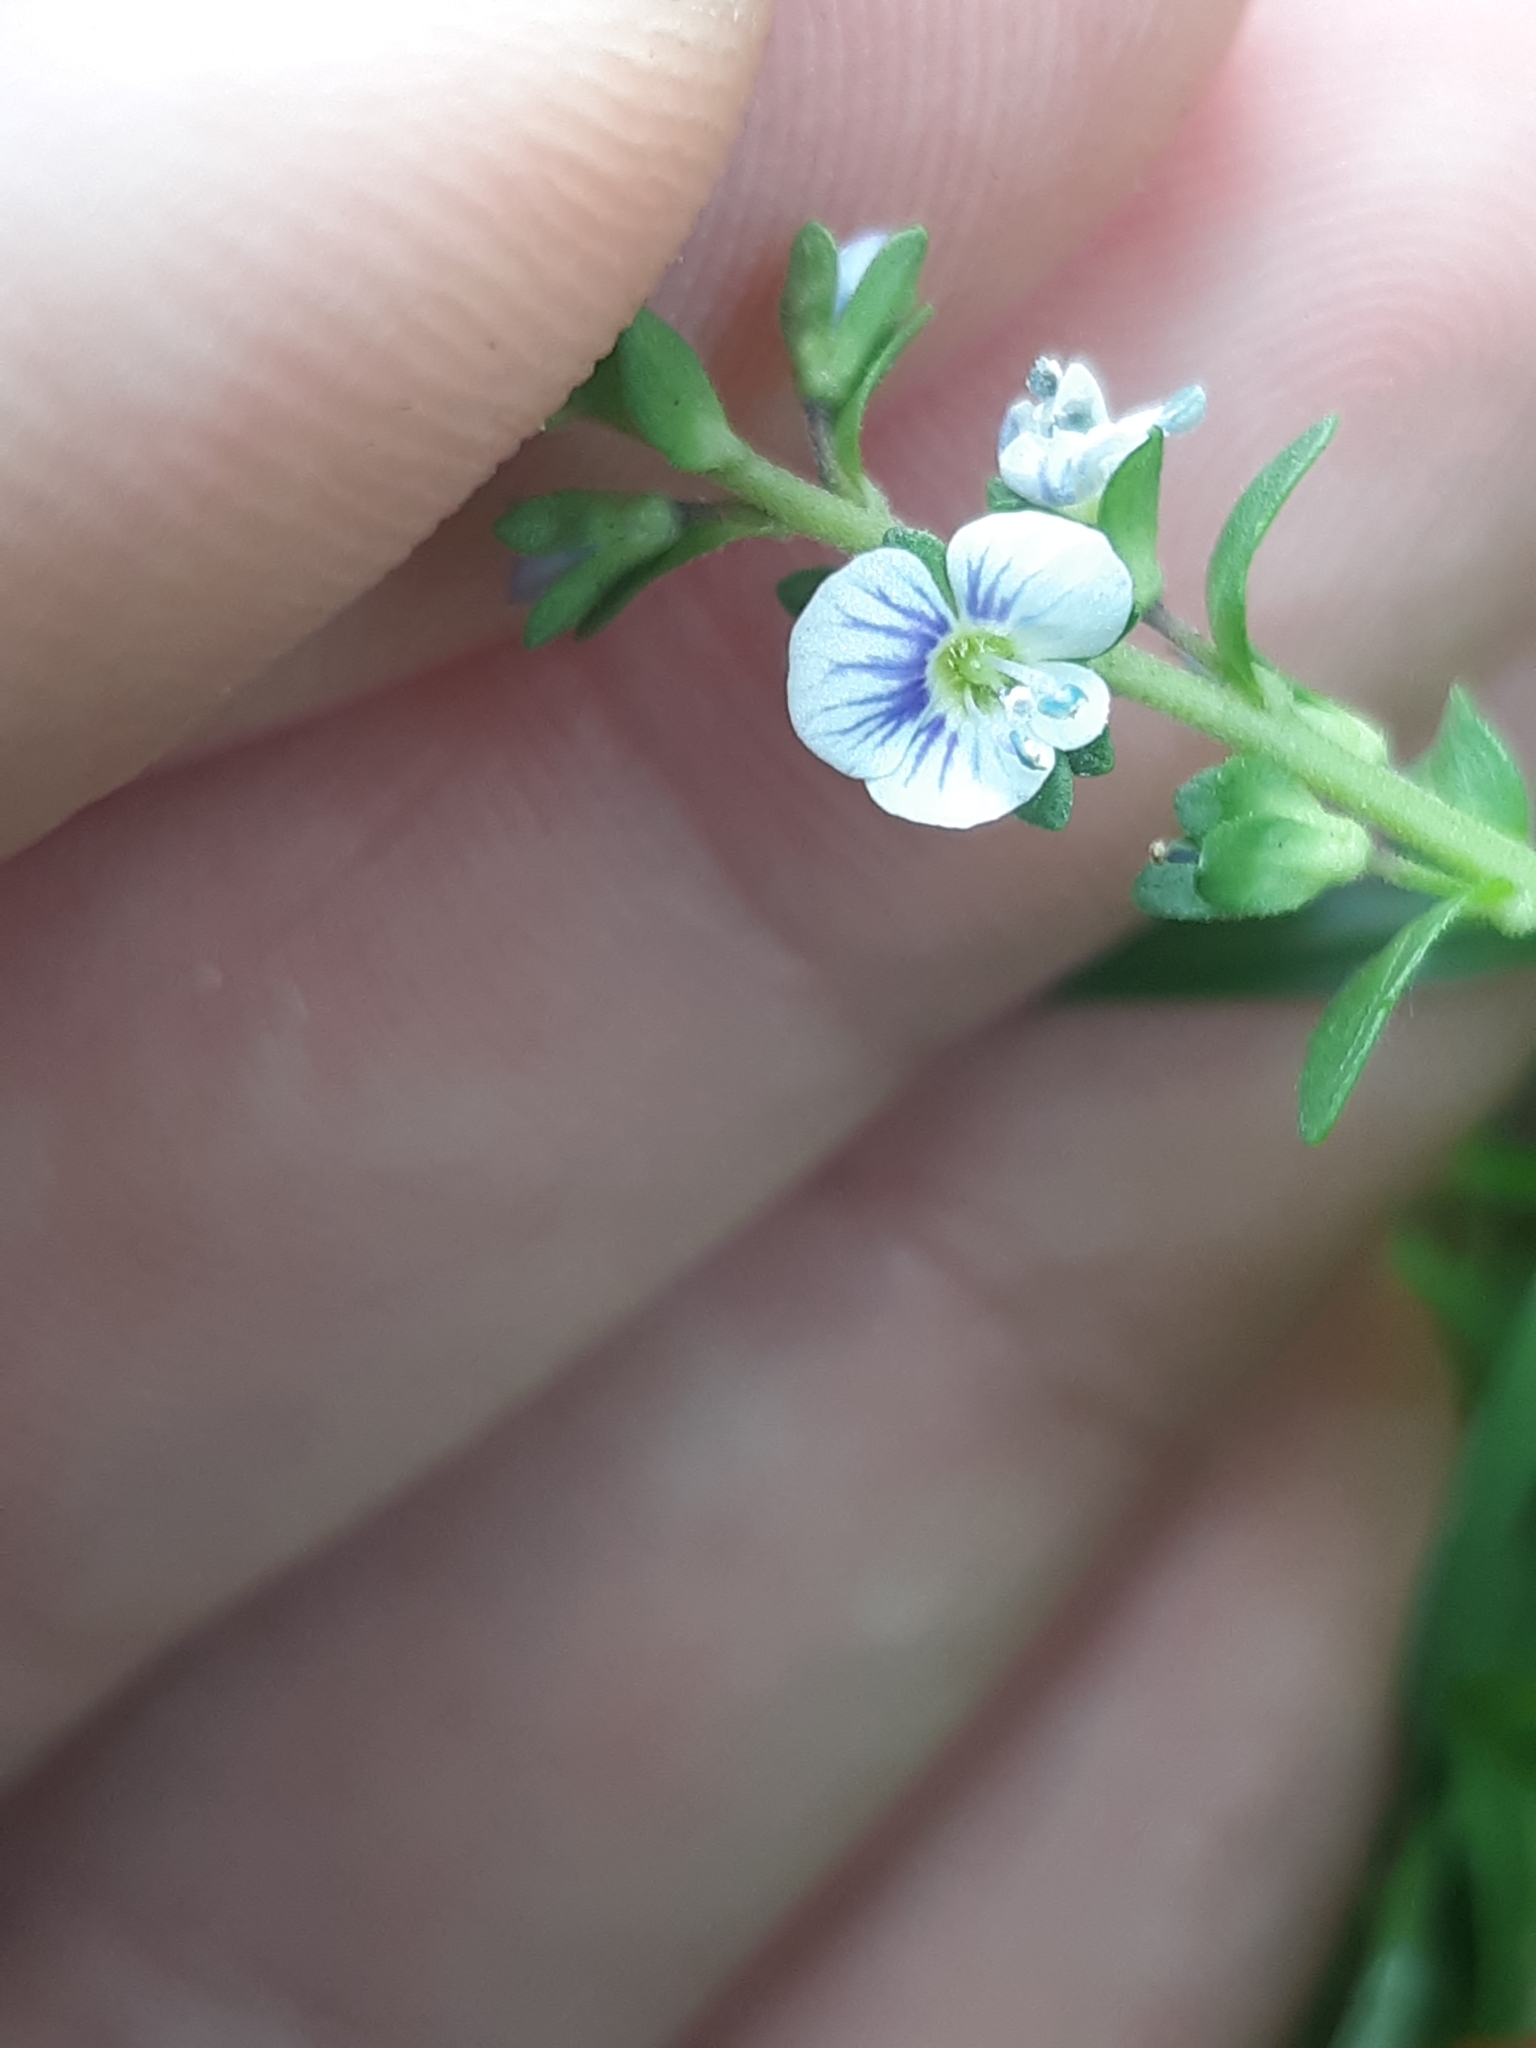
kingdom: Plantae
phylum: Tracheophyta
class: Magnoliopsida
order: Lamiales
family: Plantaginaceae
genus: Veronica
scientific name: Veronica serpyllifolia
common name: Thyme-leaved speedwell
